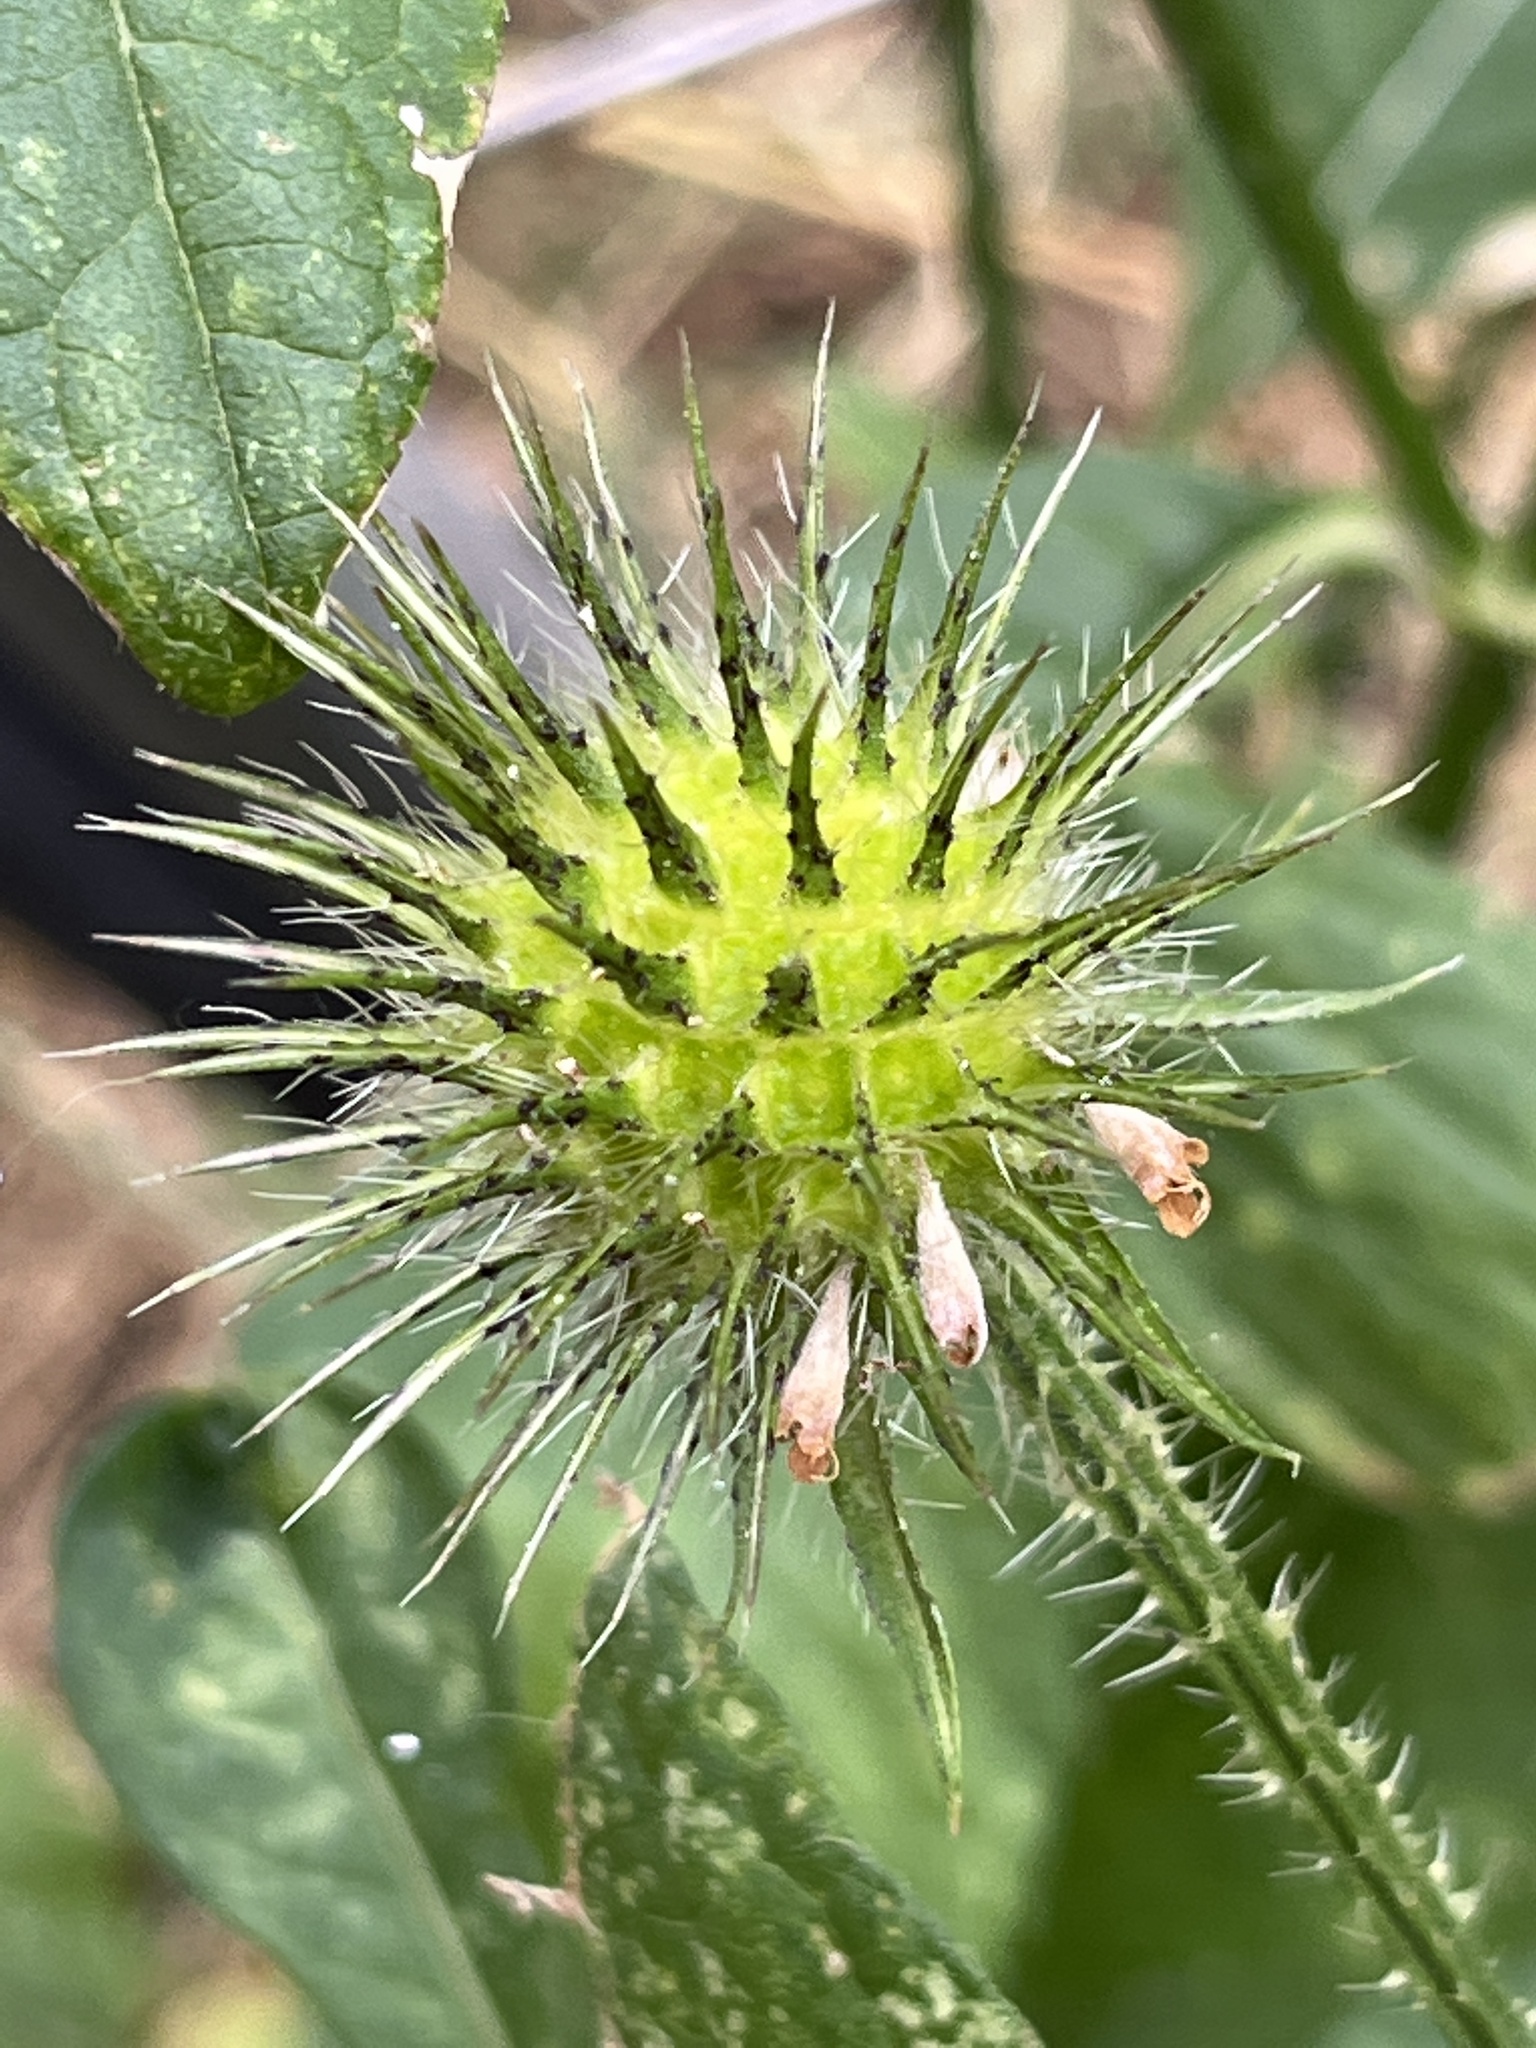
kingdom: Plantae
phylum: Tracheophyta
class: Magnoliopsida
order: Dipsacales
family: Caprifoliaceae
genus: Dipsacus
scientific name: Dipsacus strigosus
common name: Yellow-flowered teasel
